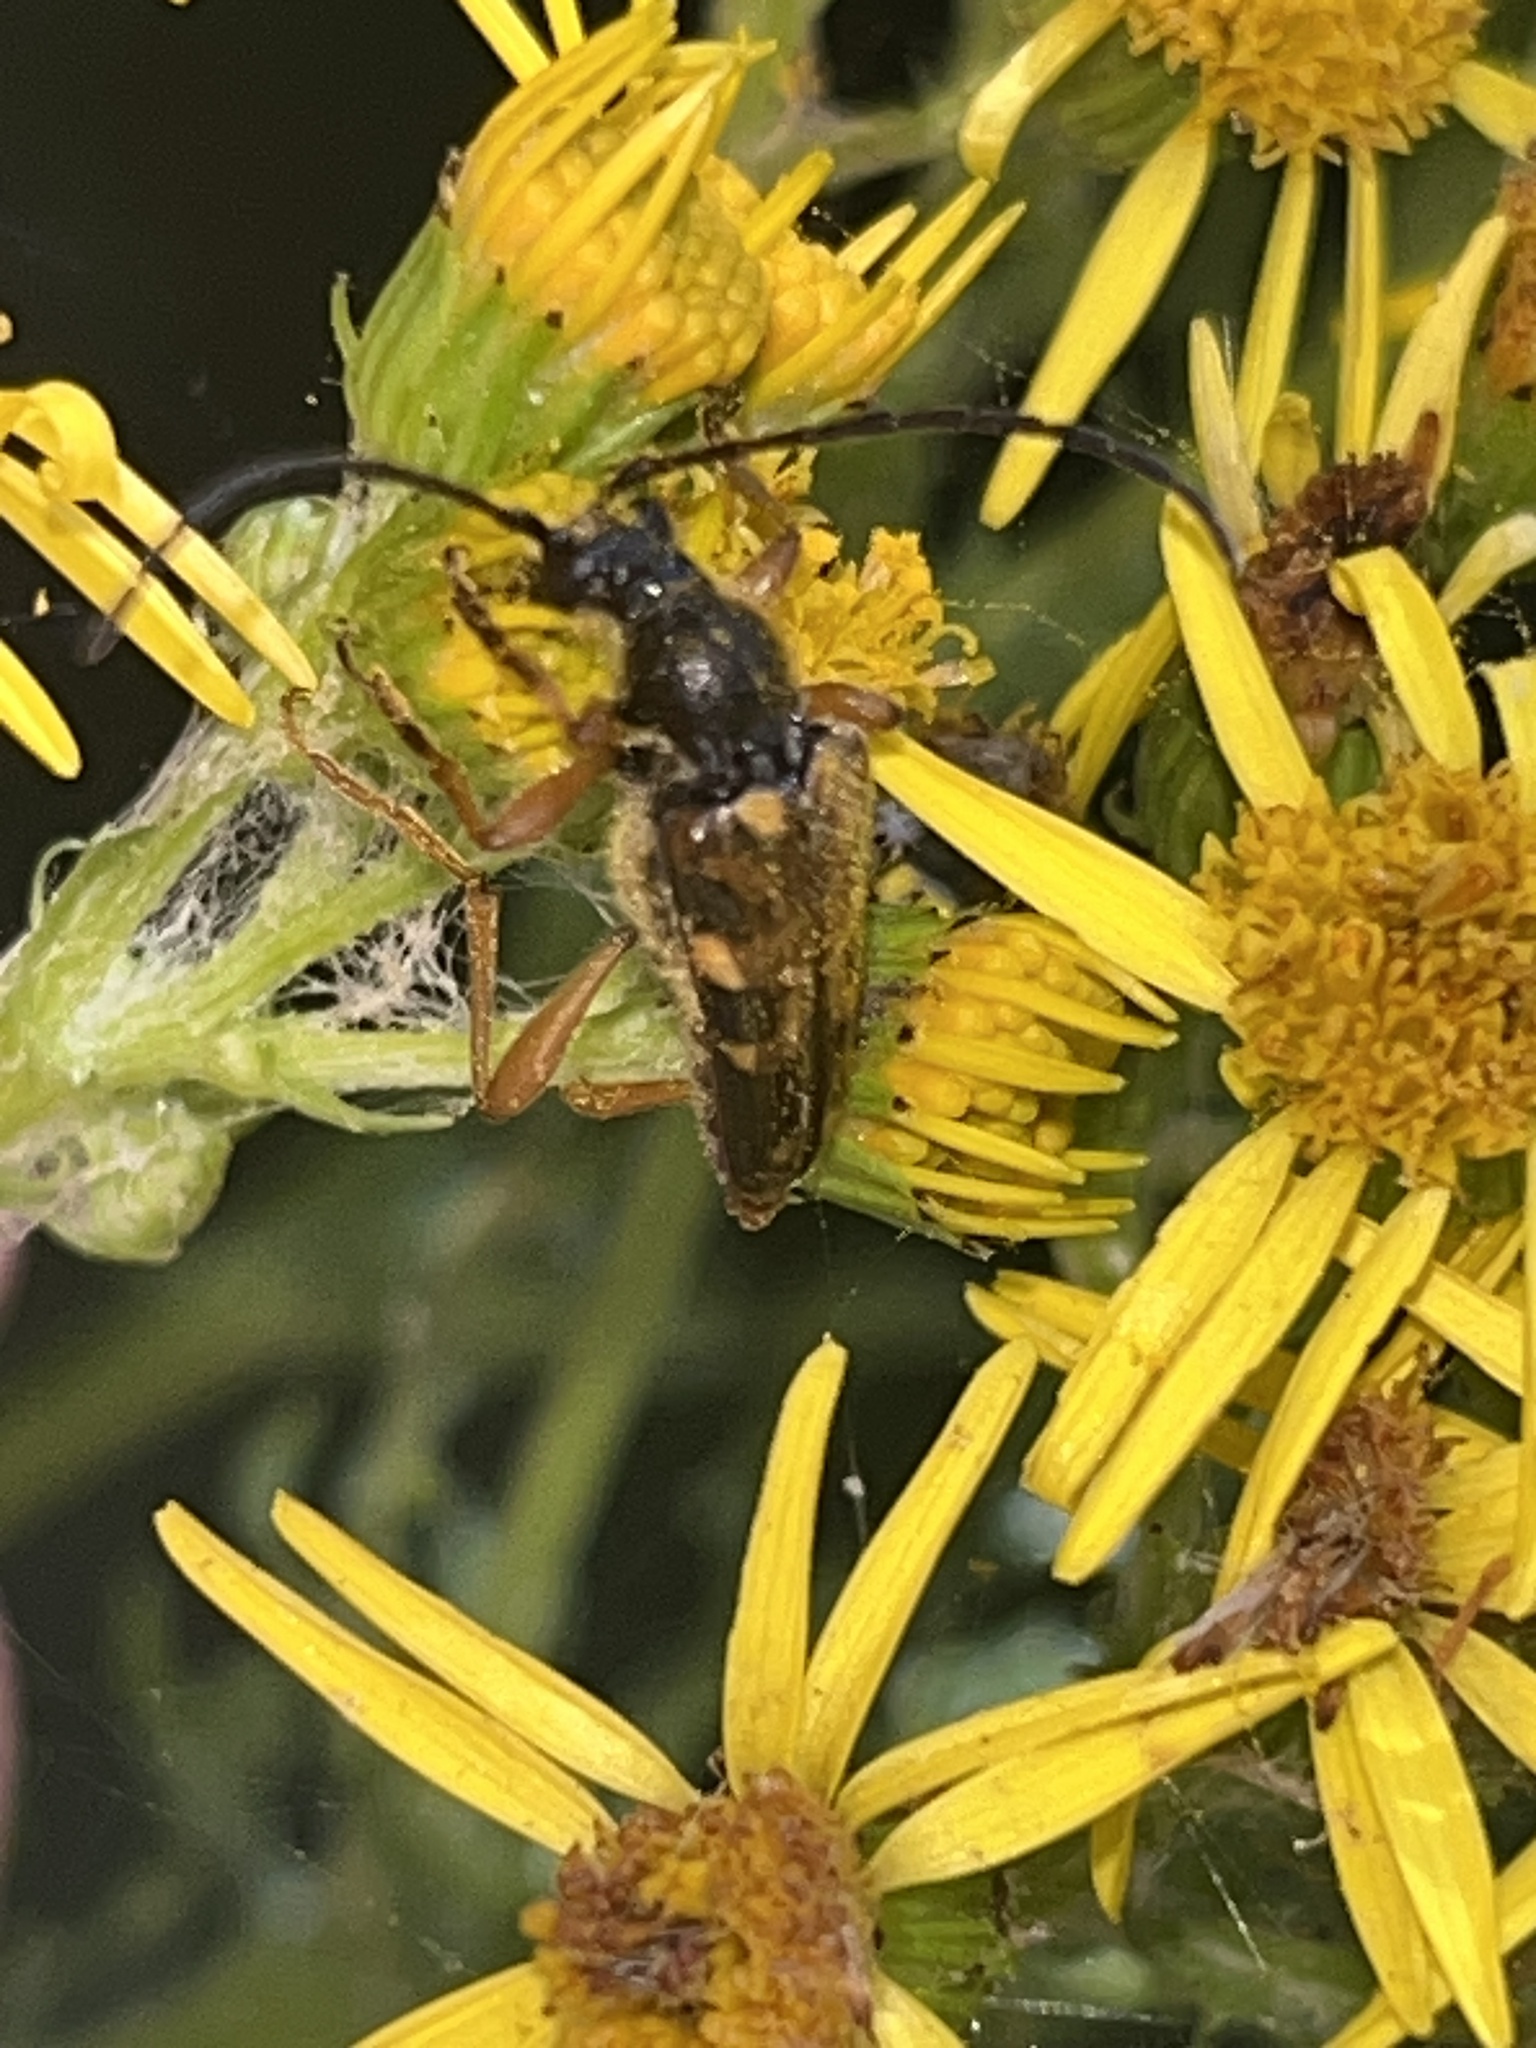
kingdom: Animalia
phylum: Arthropoda
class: Insecta
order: Coleoptera
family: Cerambycidae
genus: Xestoleptura
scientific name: Xestoleptura crassipes
